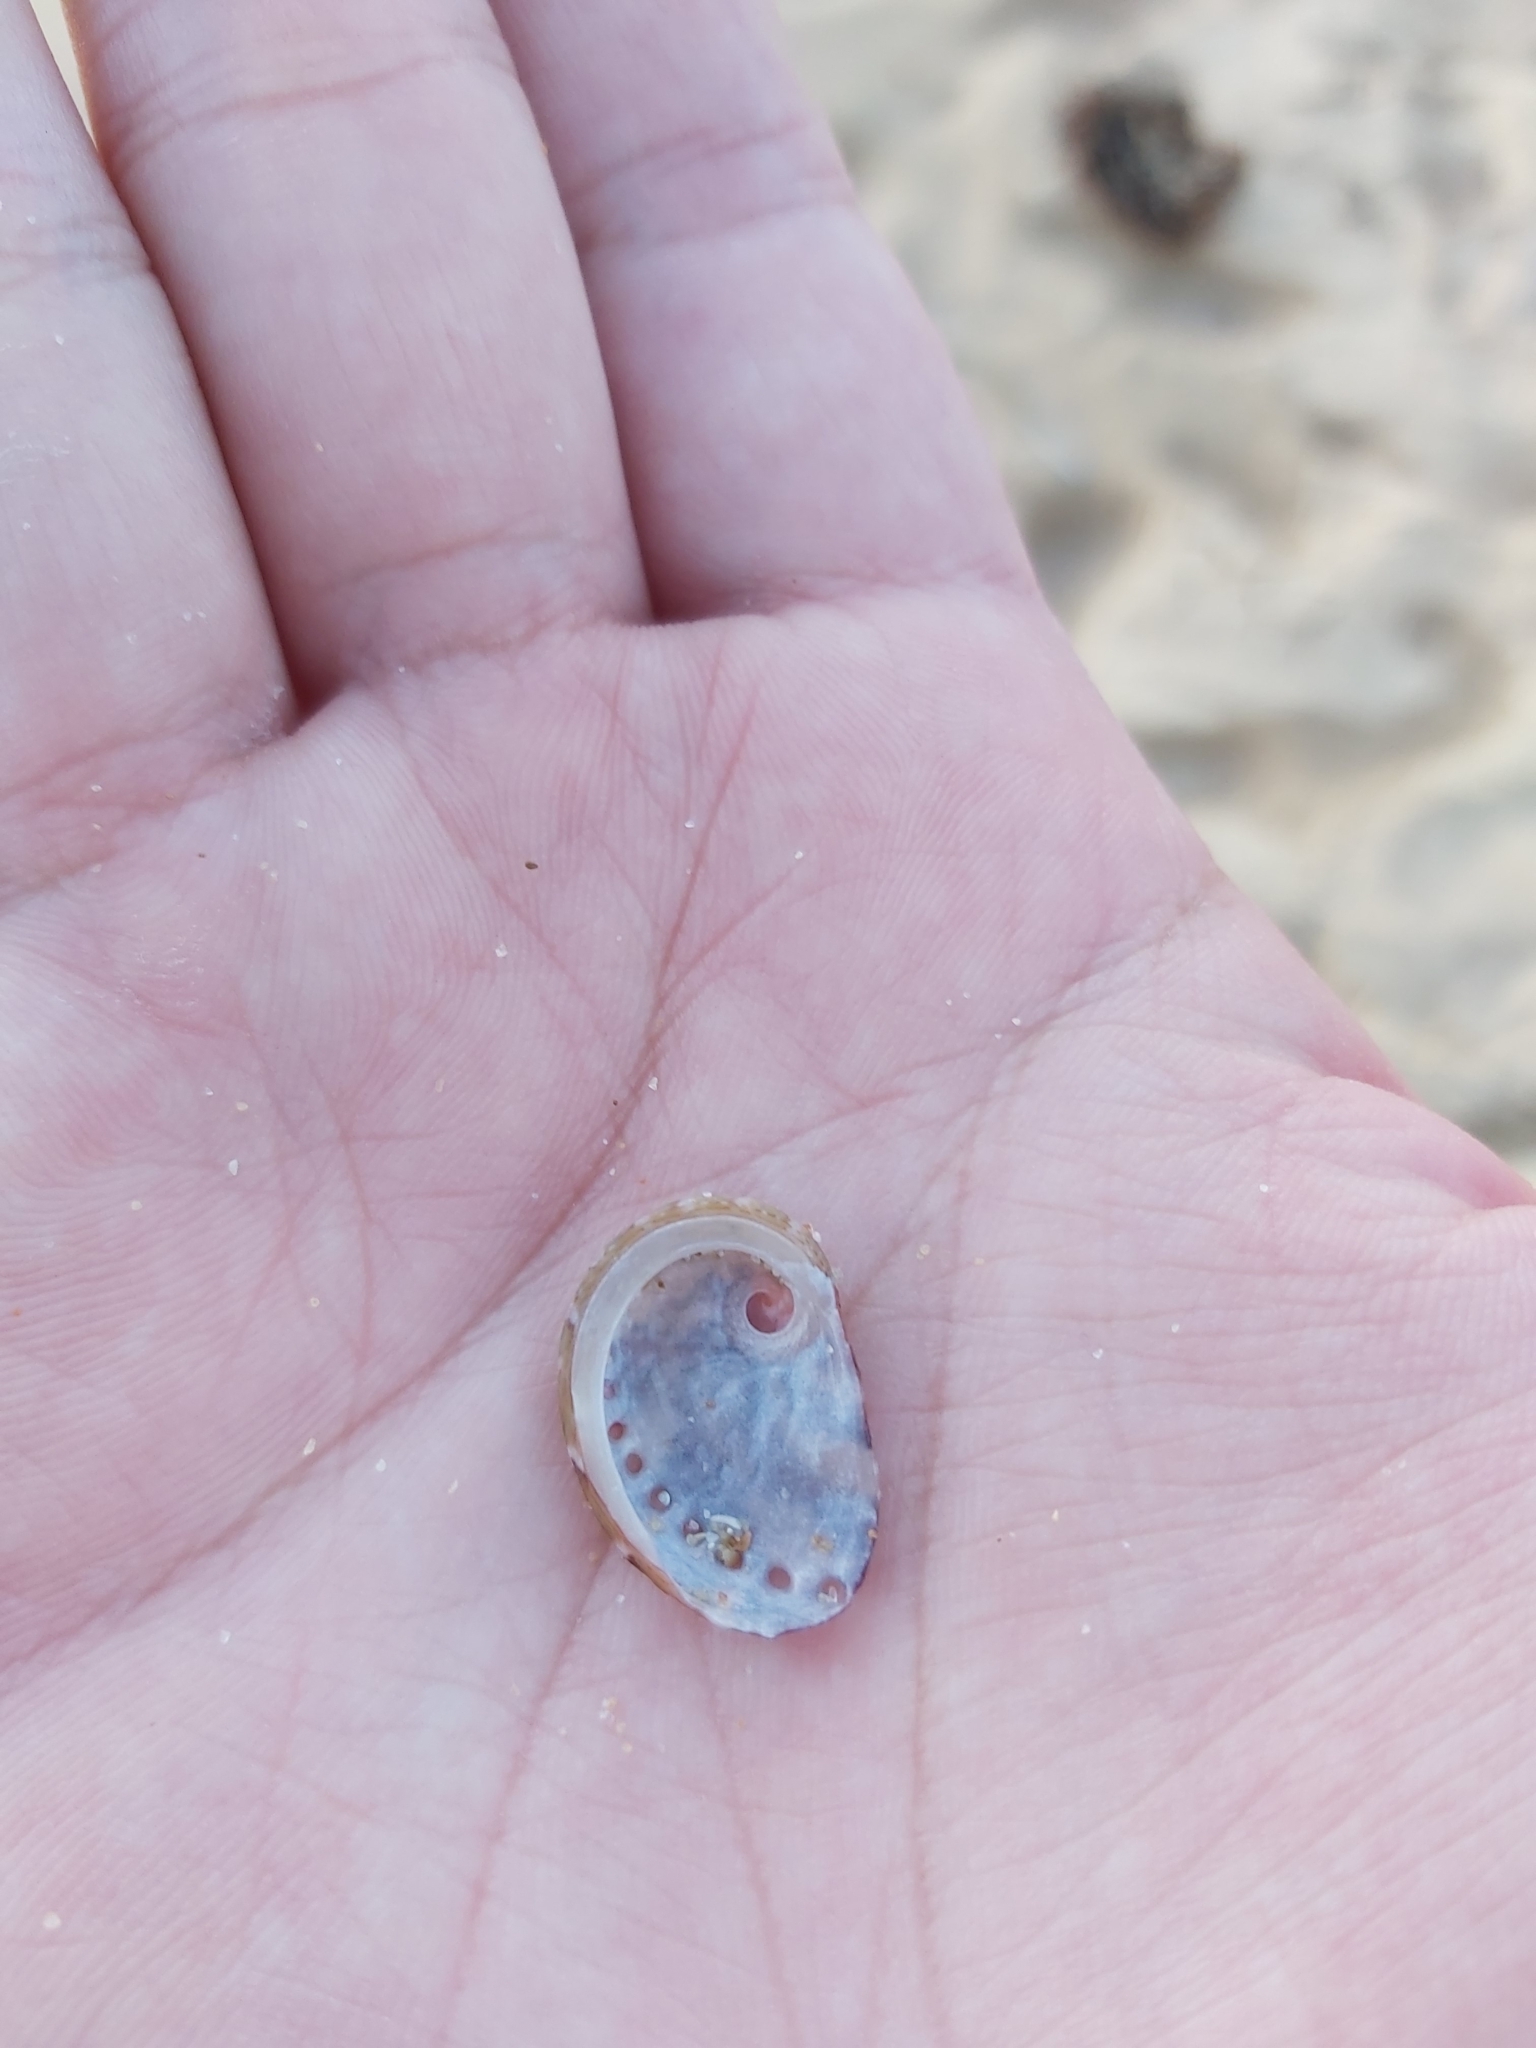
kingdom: Animalia
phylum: Mollusca
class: Gastropoda
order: Lepetellida
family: Haliotidae
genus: Haliotis
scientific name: Haliotis coccoradiata
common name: Reddish-rayed abalone
